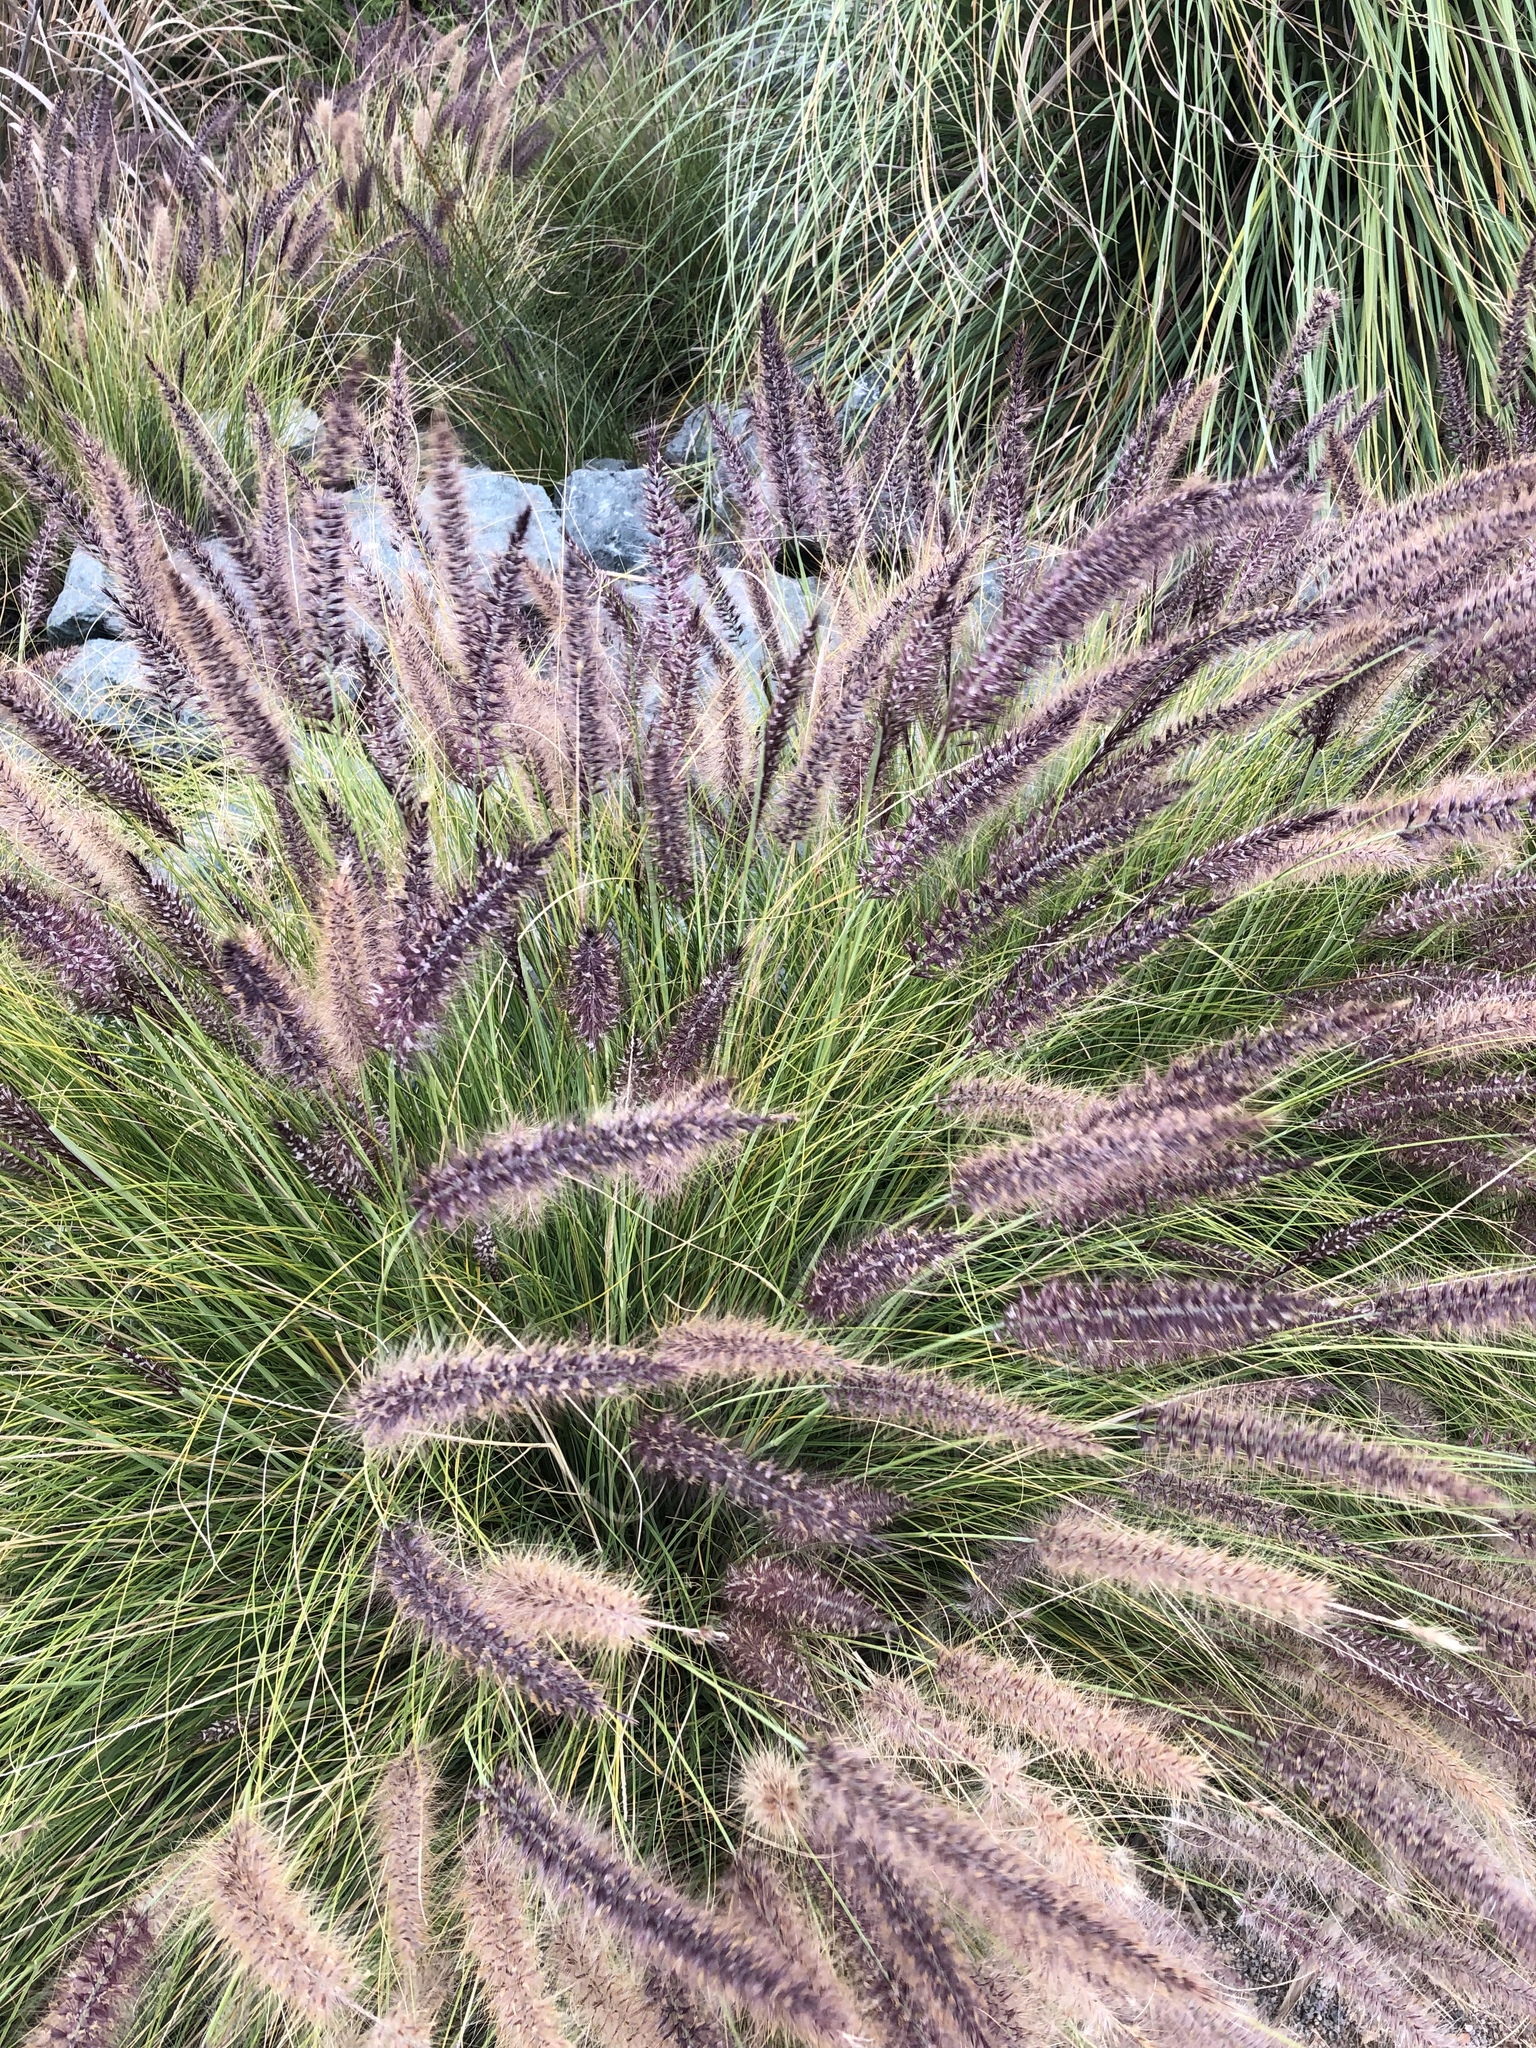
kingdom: Plantae
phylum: Tracheophyta
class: Liliopsida
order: Poales
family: Poaceae
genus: Cenchrus
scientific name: Cenchrus setaceus
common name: Crimson fountaingrass
